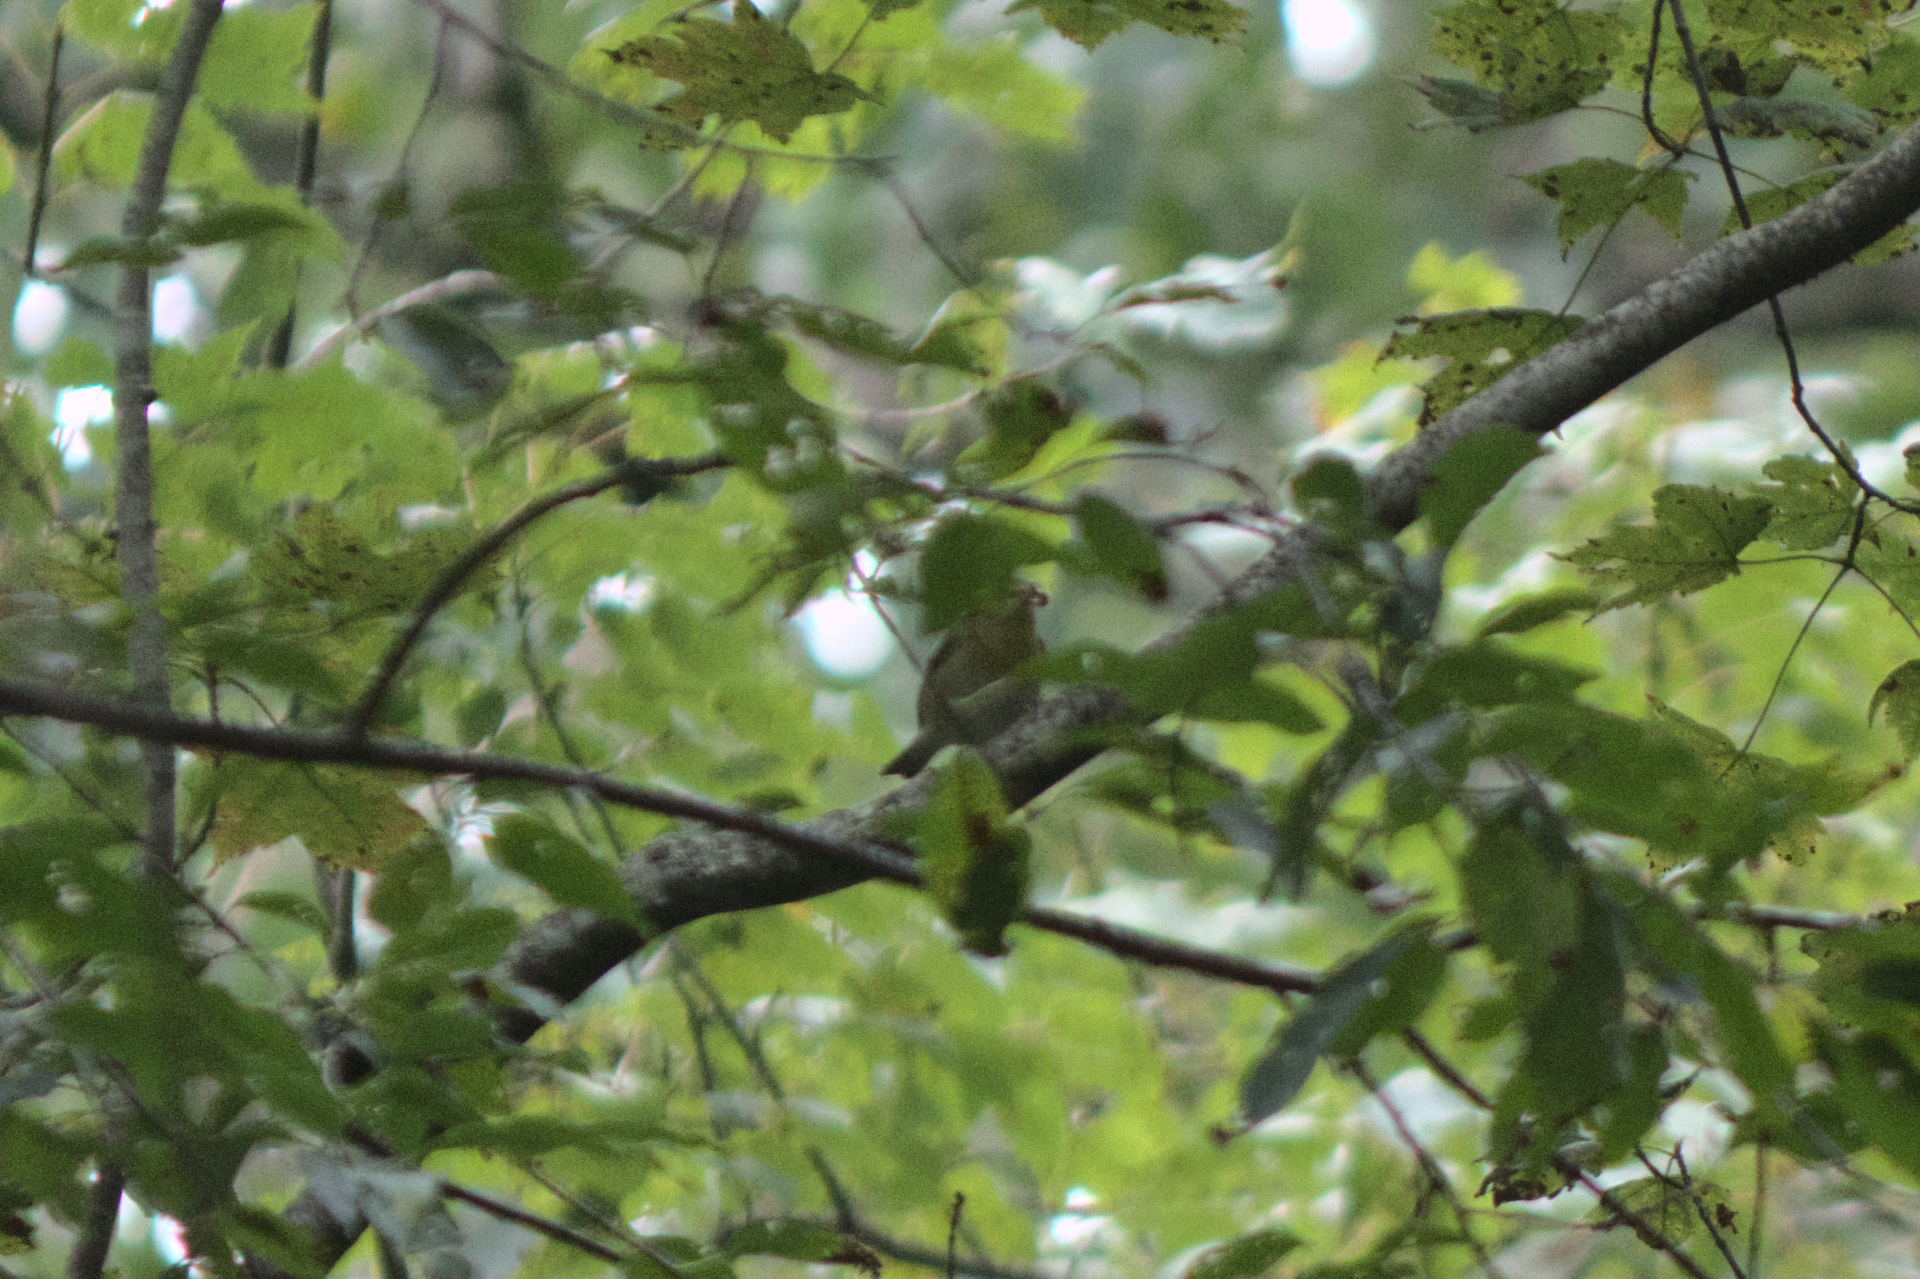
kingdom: Animalia
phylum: Chordata
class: Aves
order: Passeriformes
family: Parulidae
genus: Leiothlypis
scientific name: Leiothlypis peregrina
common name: Tennessee warbler
